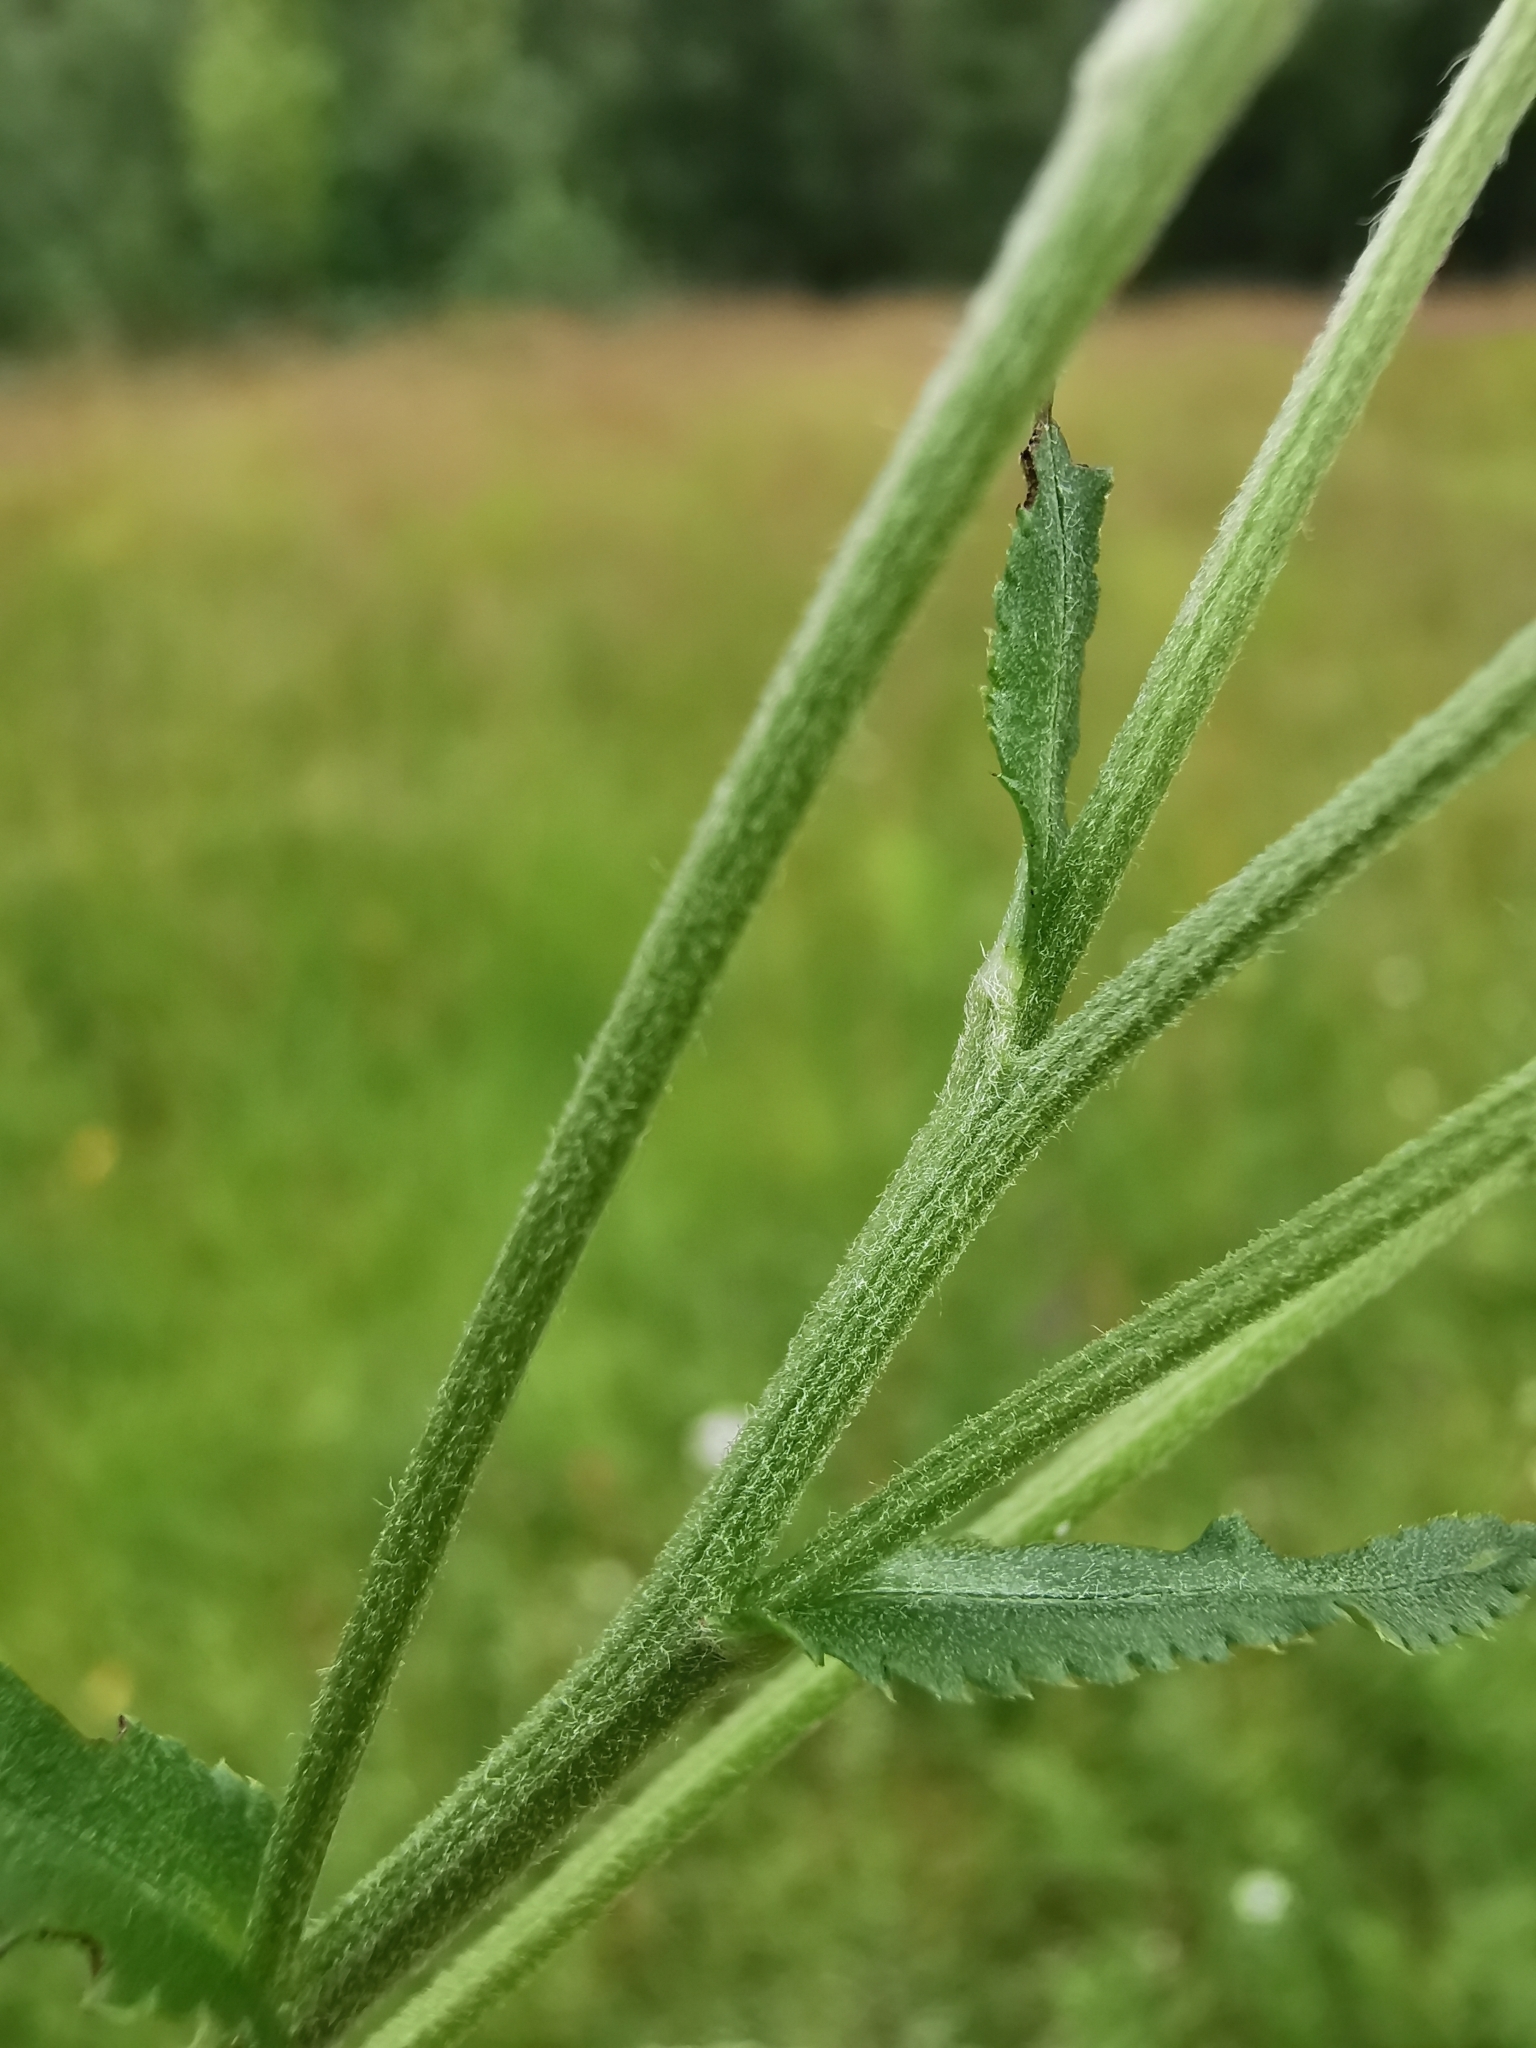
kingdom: Plantae
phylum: Tracheophyta
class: Magnoliopsida
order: Asterales
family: Asteraceae
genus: Achillea
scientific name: Achillea ptarmica
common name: Sneezeweed
